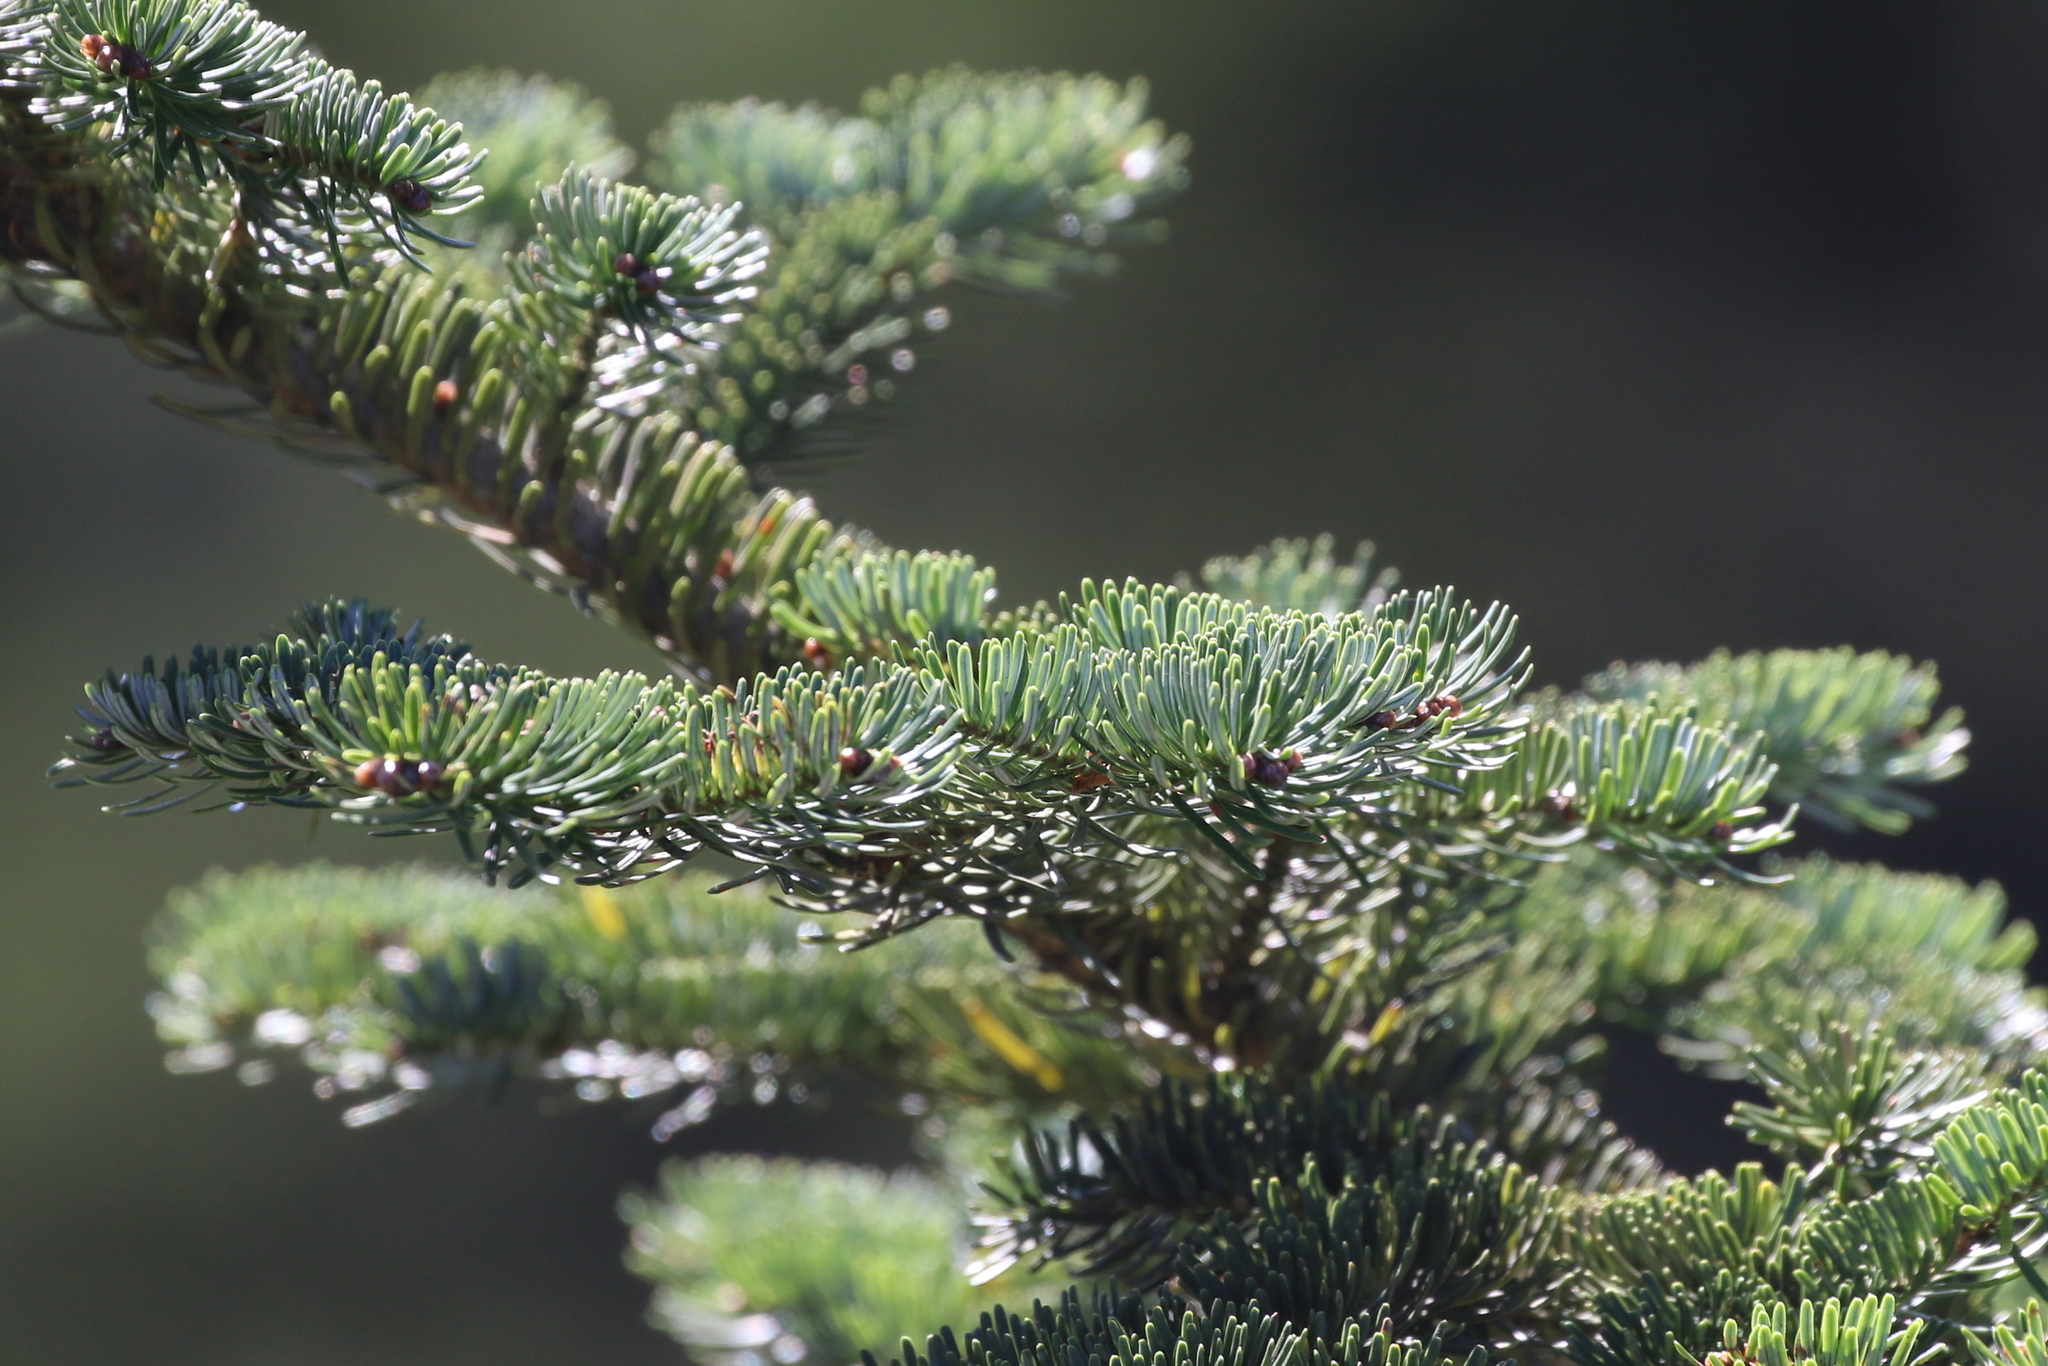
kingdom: Plantae
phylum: Tracheophyta
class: Pinopsida
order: Pinales
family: Pinaceae
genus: Abies
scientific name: Abies fraseri
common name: Fraser fir
